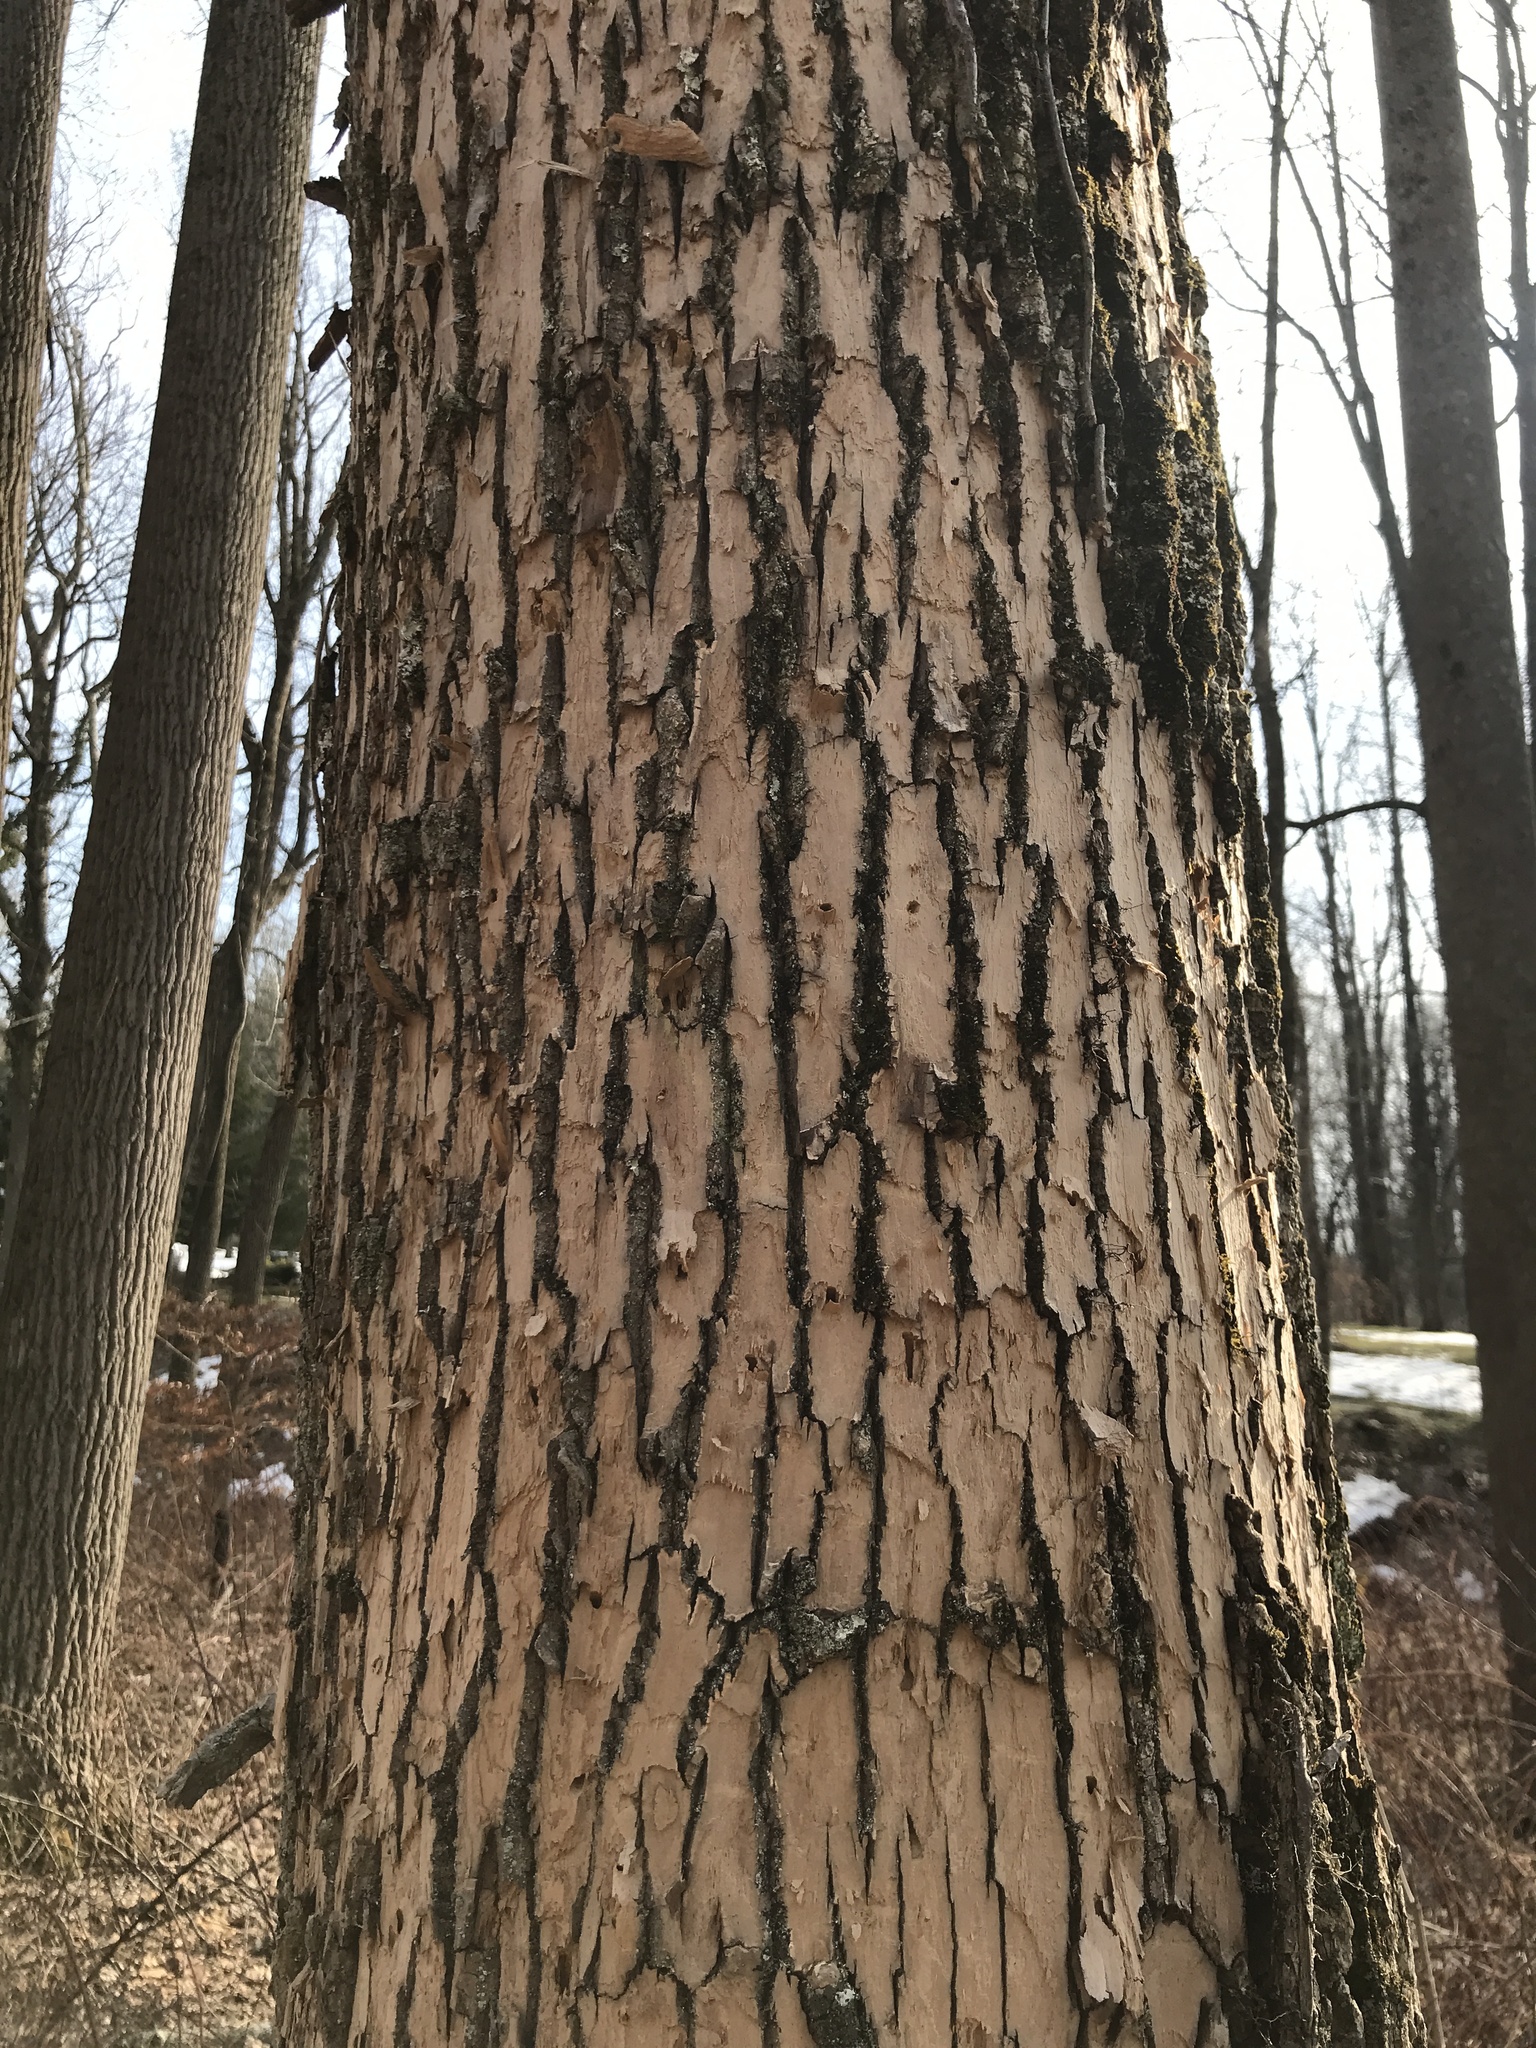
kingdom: Animalia
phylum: Arthropoda
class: Insecta
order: Coleoptera
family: Buprestidae
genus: Agrilus
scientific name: Agrilus planipennis
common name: Emerald ash borer
